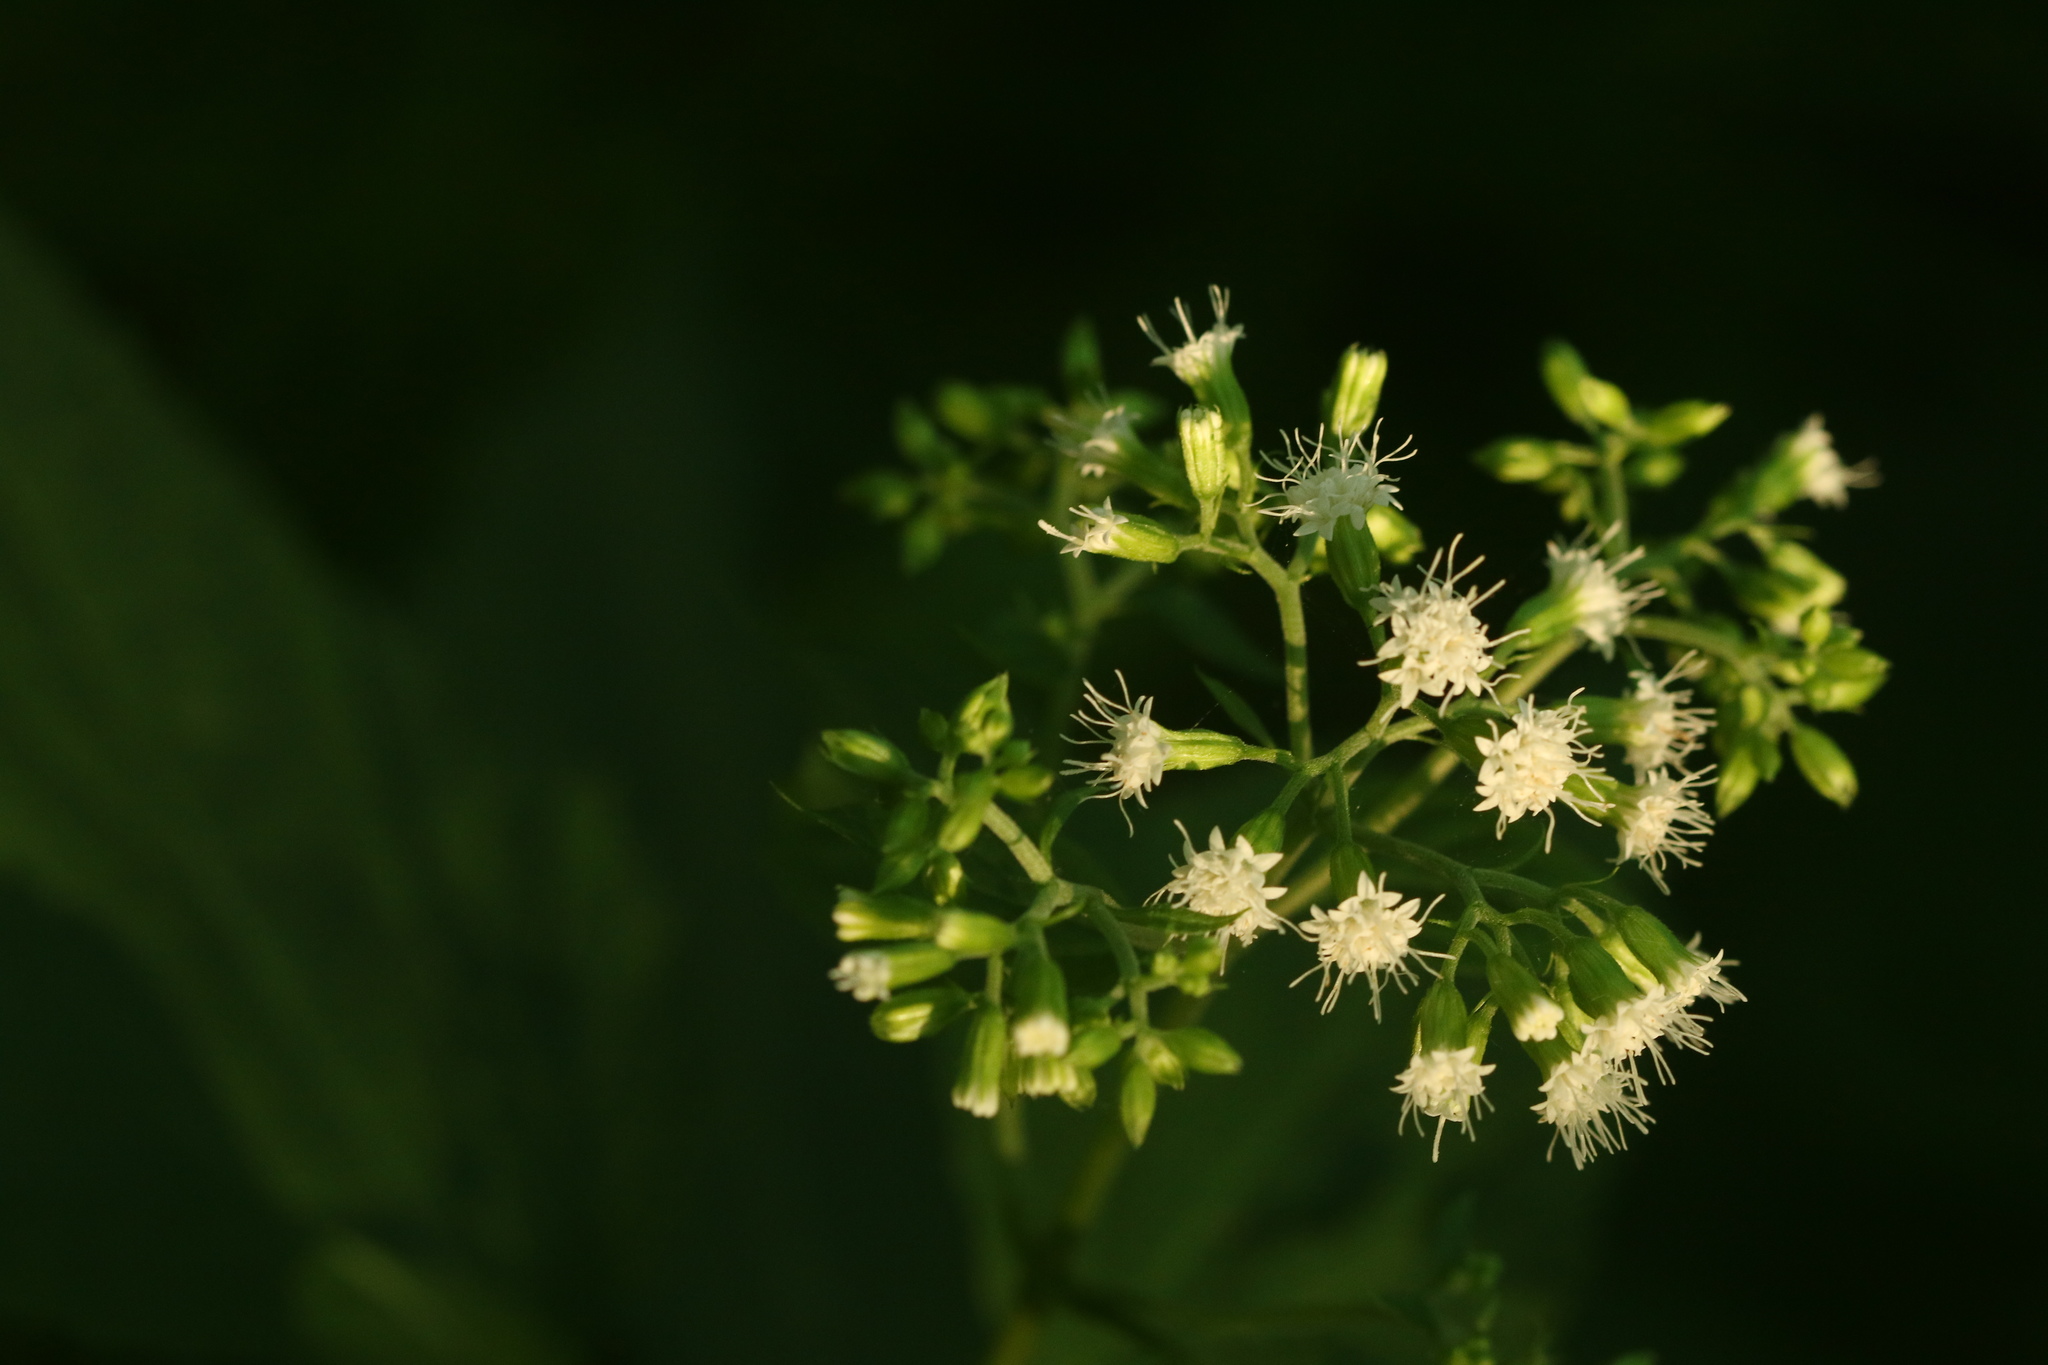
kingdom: Plantae
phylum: Tracheophyta
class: Magnoliopsida
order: Asterales
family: Asteraceae
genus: Ageratina
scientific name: Ageratina altissima
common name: White snakeroot
